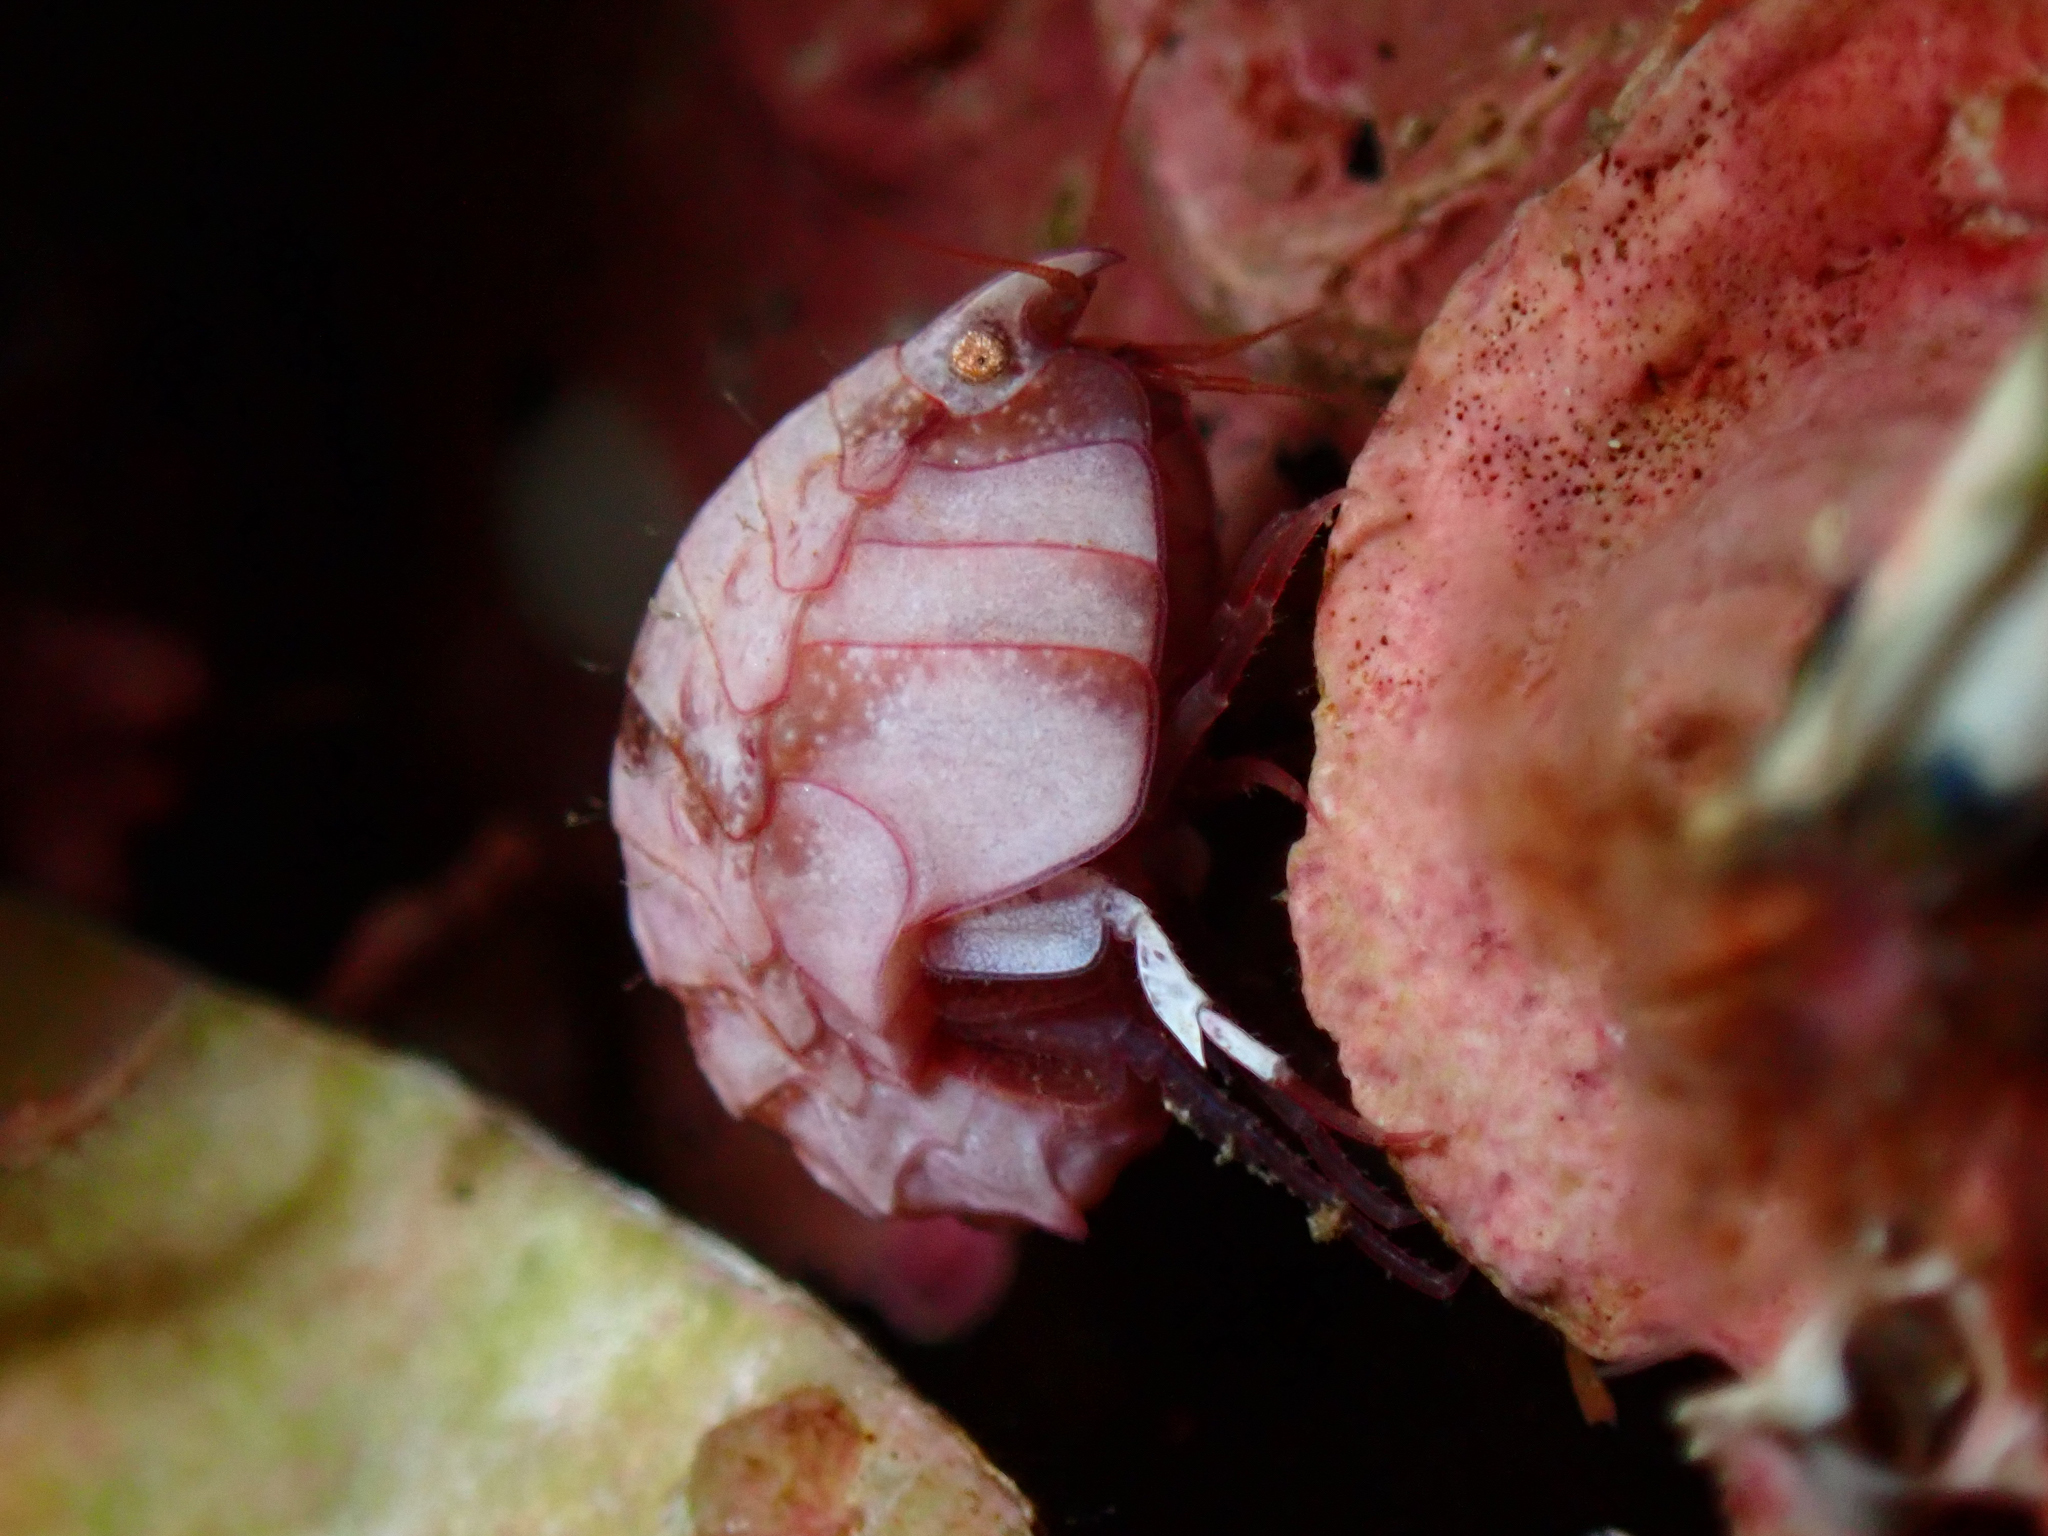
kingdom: Animalia
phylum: Arthropoda
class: Malacostraca
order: Amphipoda
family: Pleustidae
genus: Pleustes
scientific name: Pleustes panoplus
